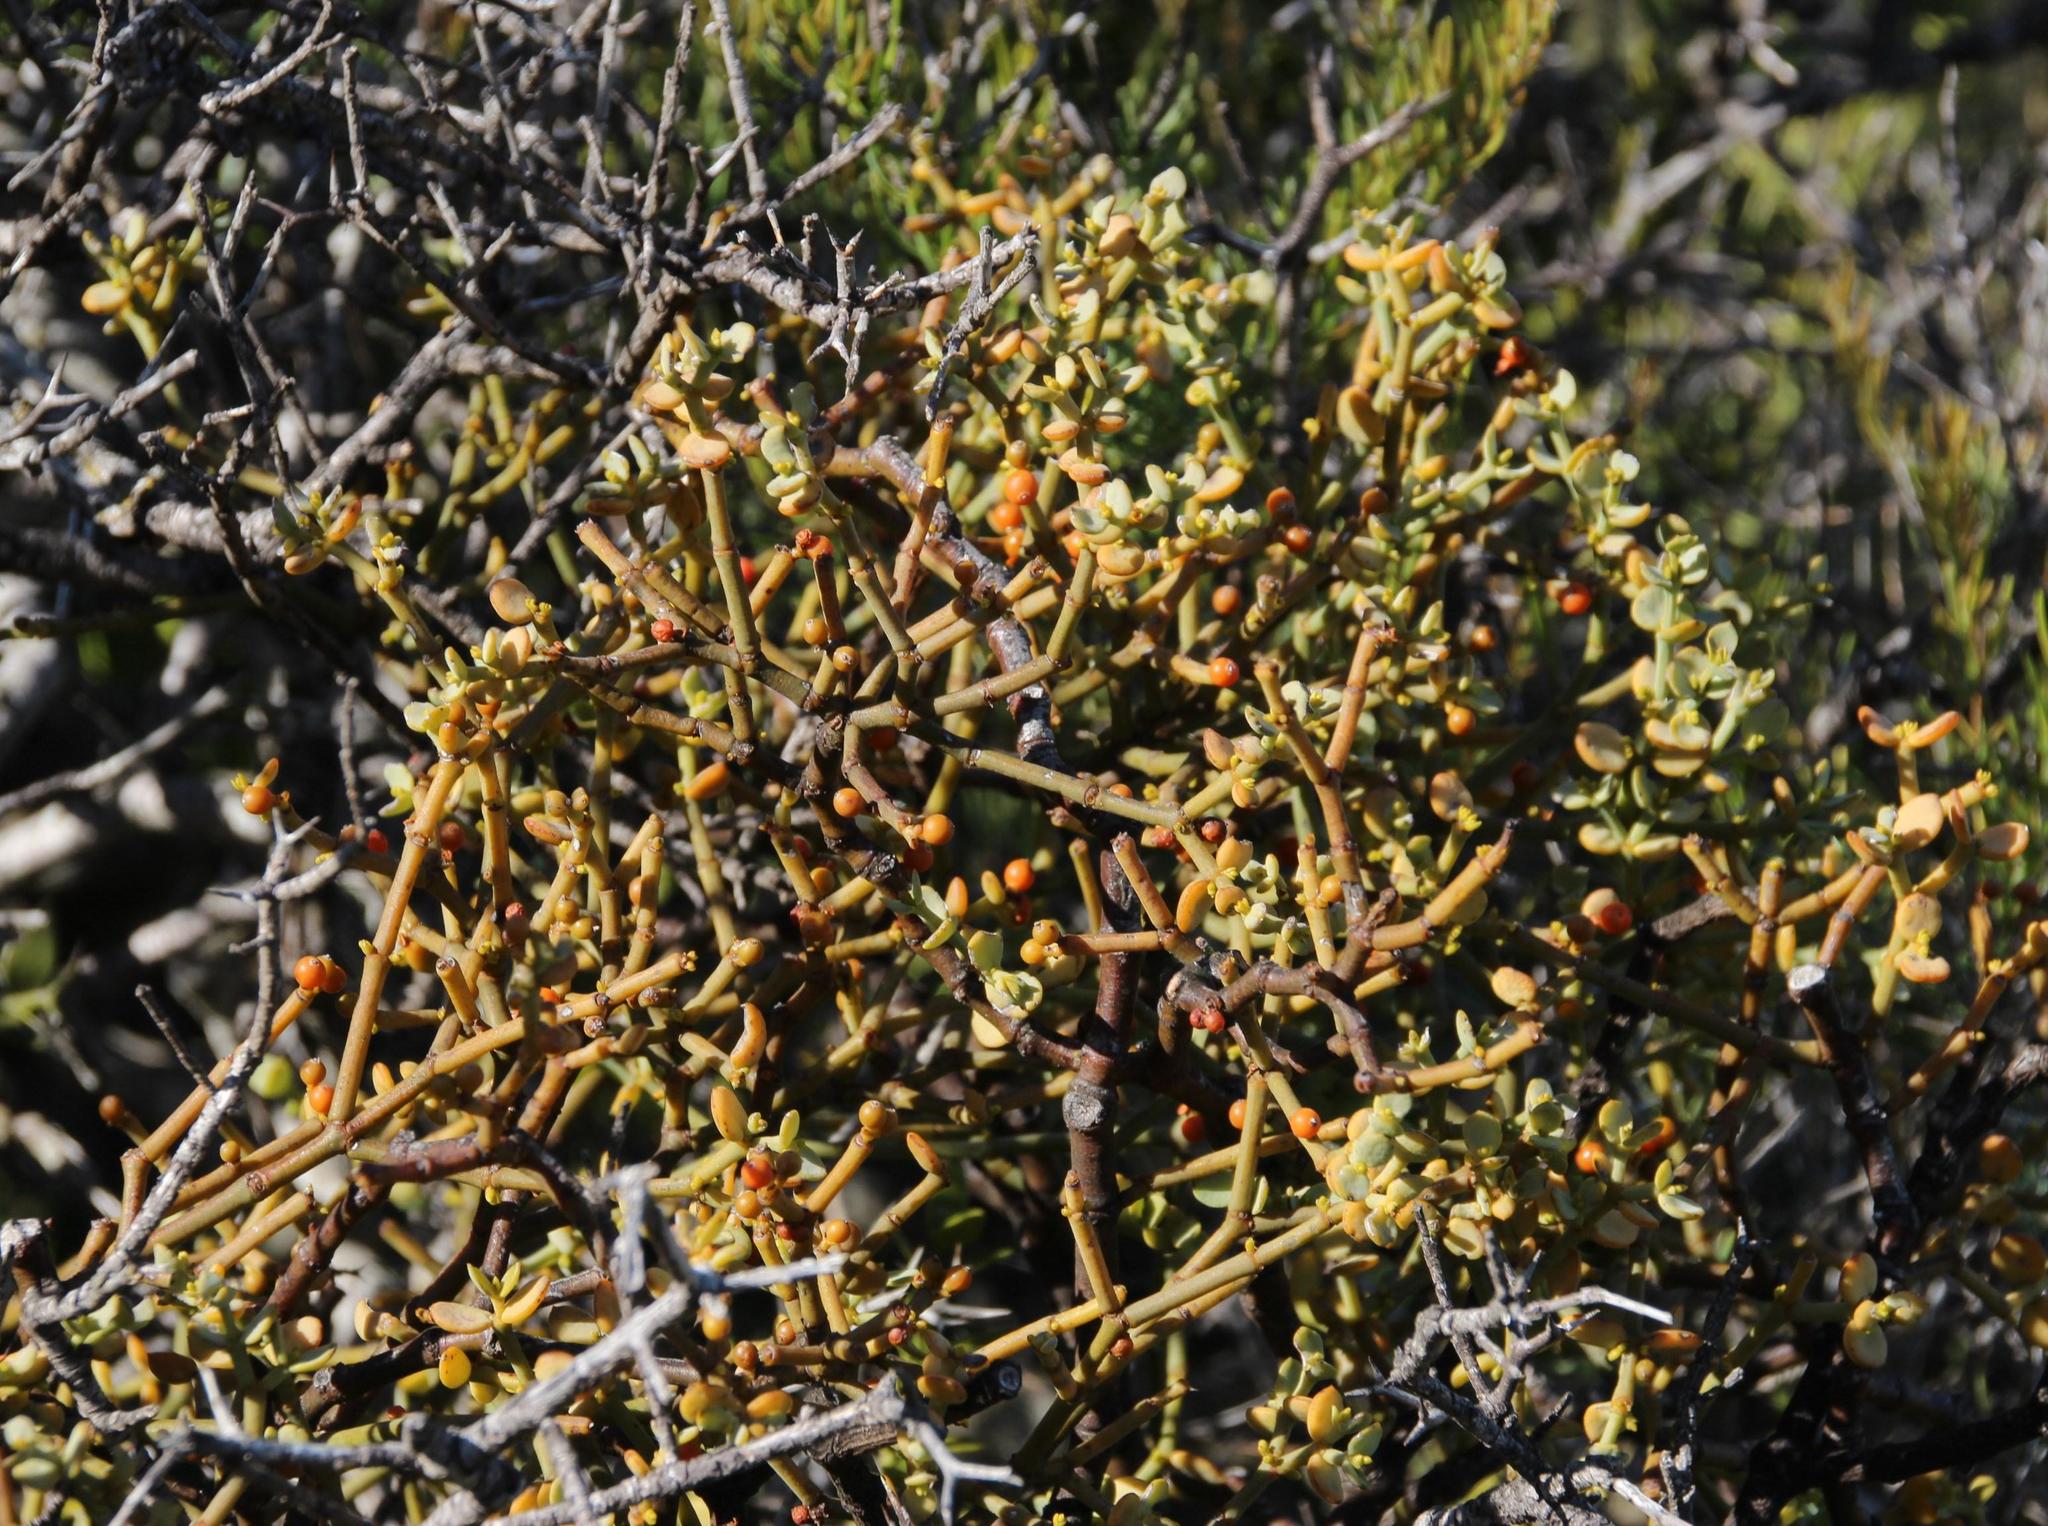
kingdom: Plantae
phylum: Tracheophyta
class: Magnoliopsida
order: Santalales
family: Viscaceae
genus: Viscum
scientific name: Viscum rotundifolium
